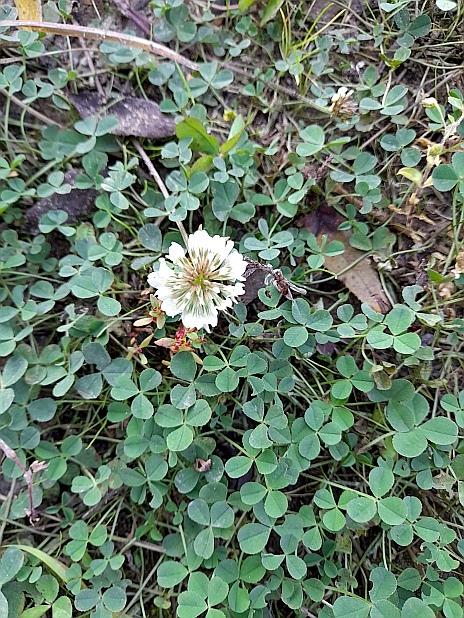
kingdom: Plantae
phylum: Tracheophyta
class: Magnoliopsida
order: Fabales
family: Fabaceae
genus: Trifolium
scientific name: Trifolium repens
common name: White clover
